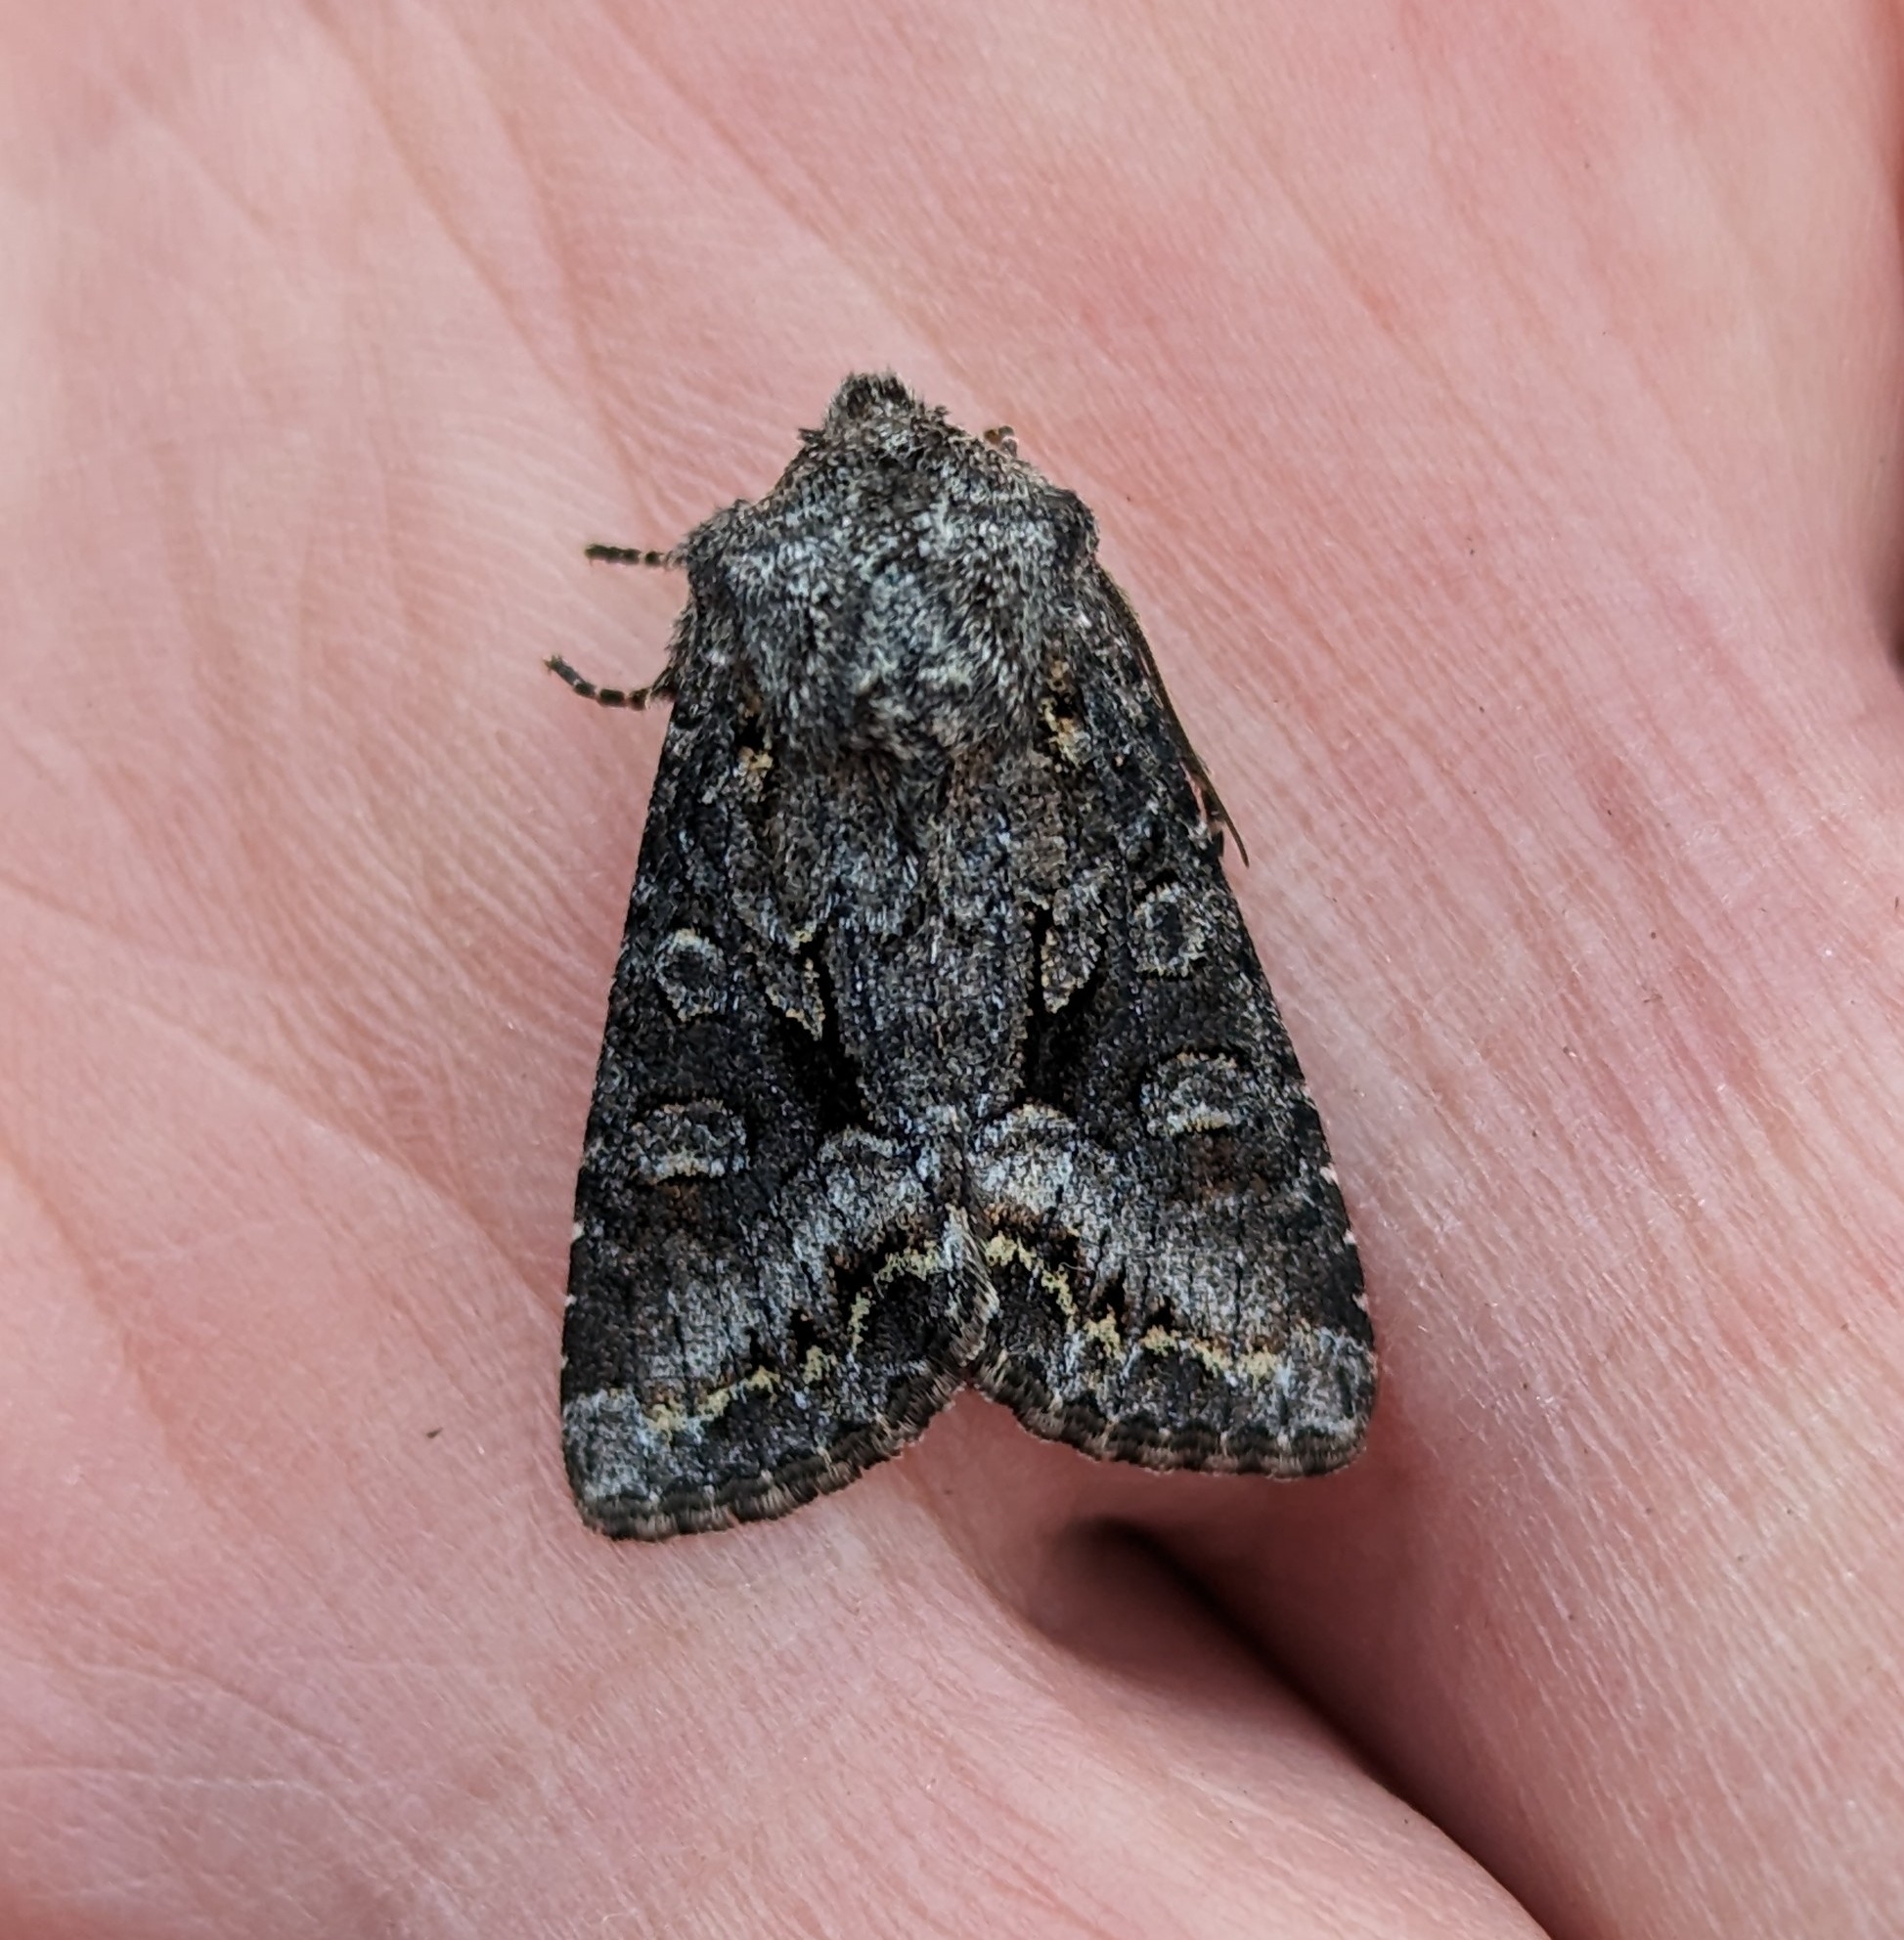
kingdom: Animalia
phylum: Arthropoda
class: Insecta
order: Lepidoptera
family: Noctuidae
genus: Papestra
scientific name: Papestra quadrata
